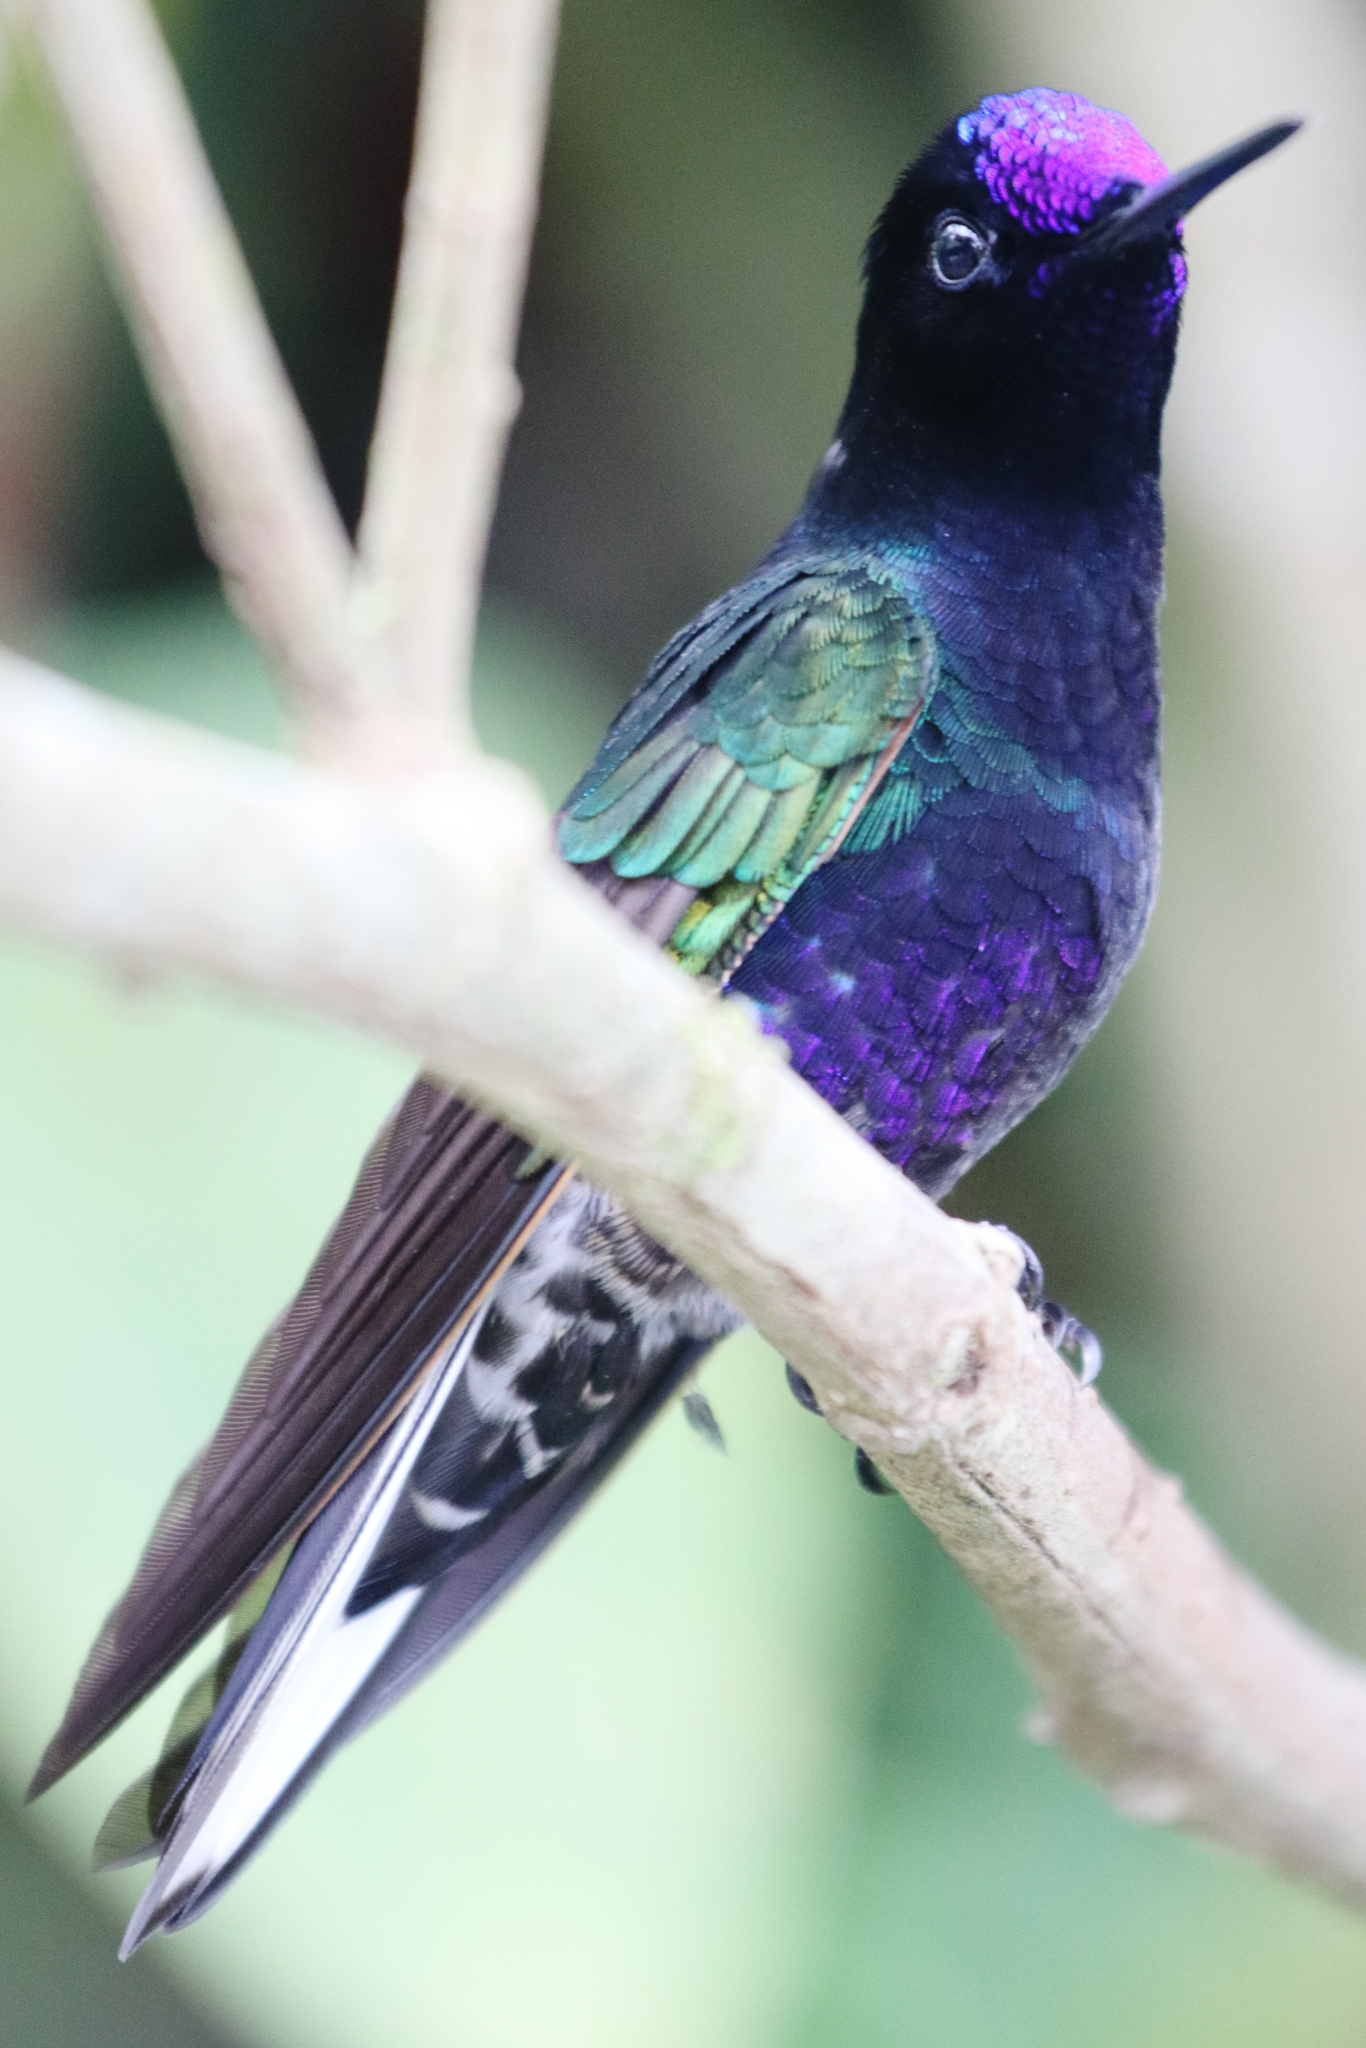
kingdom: Animalia
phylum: Chordata
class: Aves
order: Apodiformes
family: Trochilidae
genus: Boissonneaua
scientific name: Boissonneaua jardini
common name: Velvet-purple coronet
